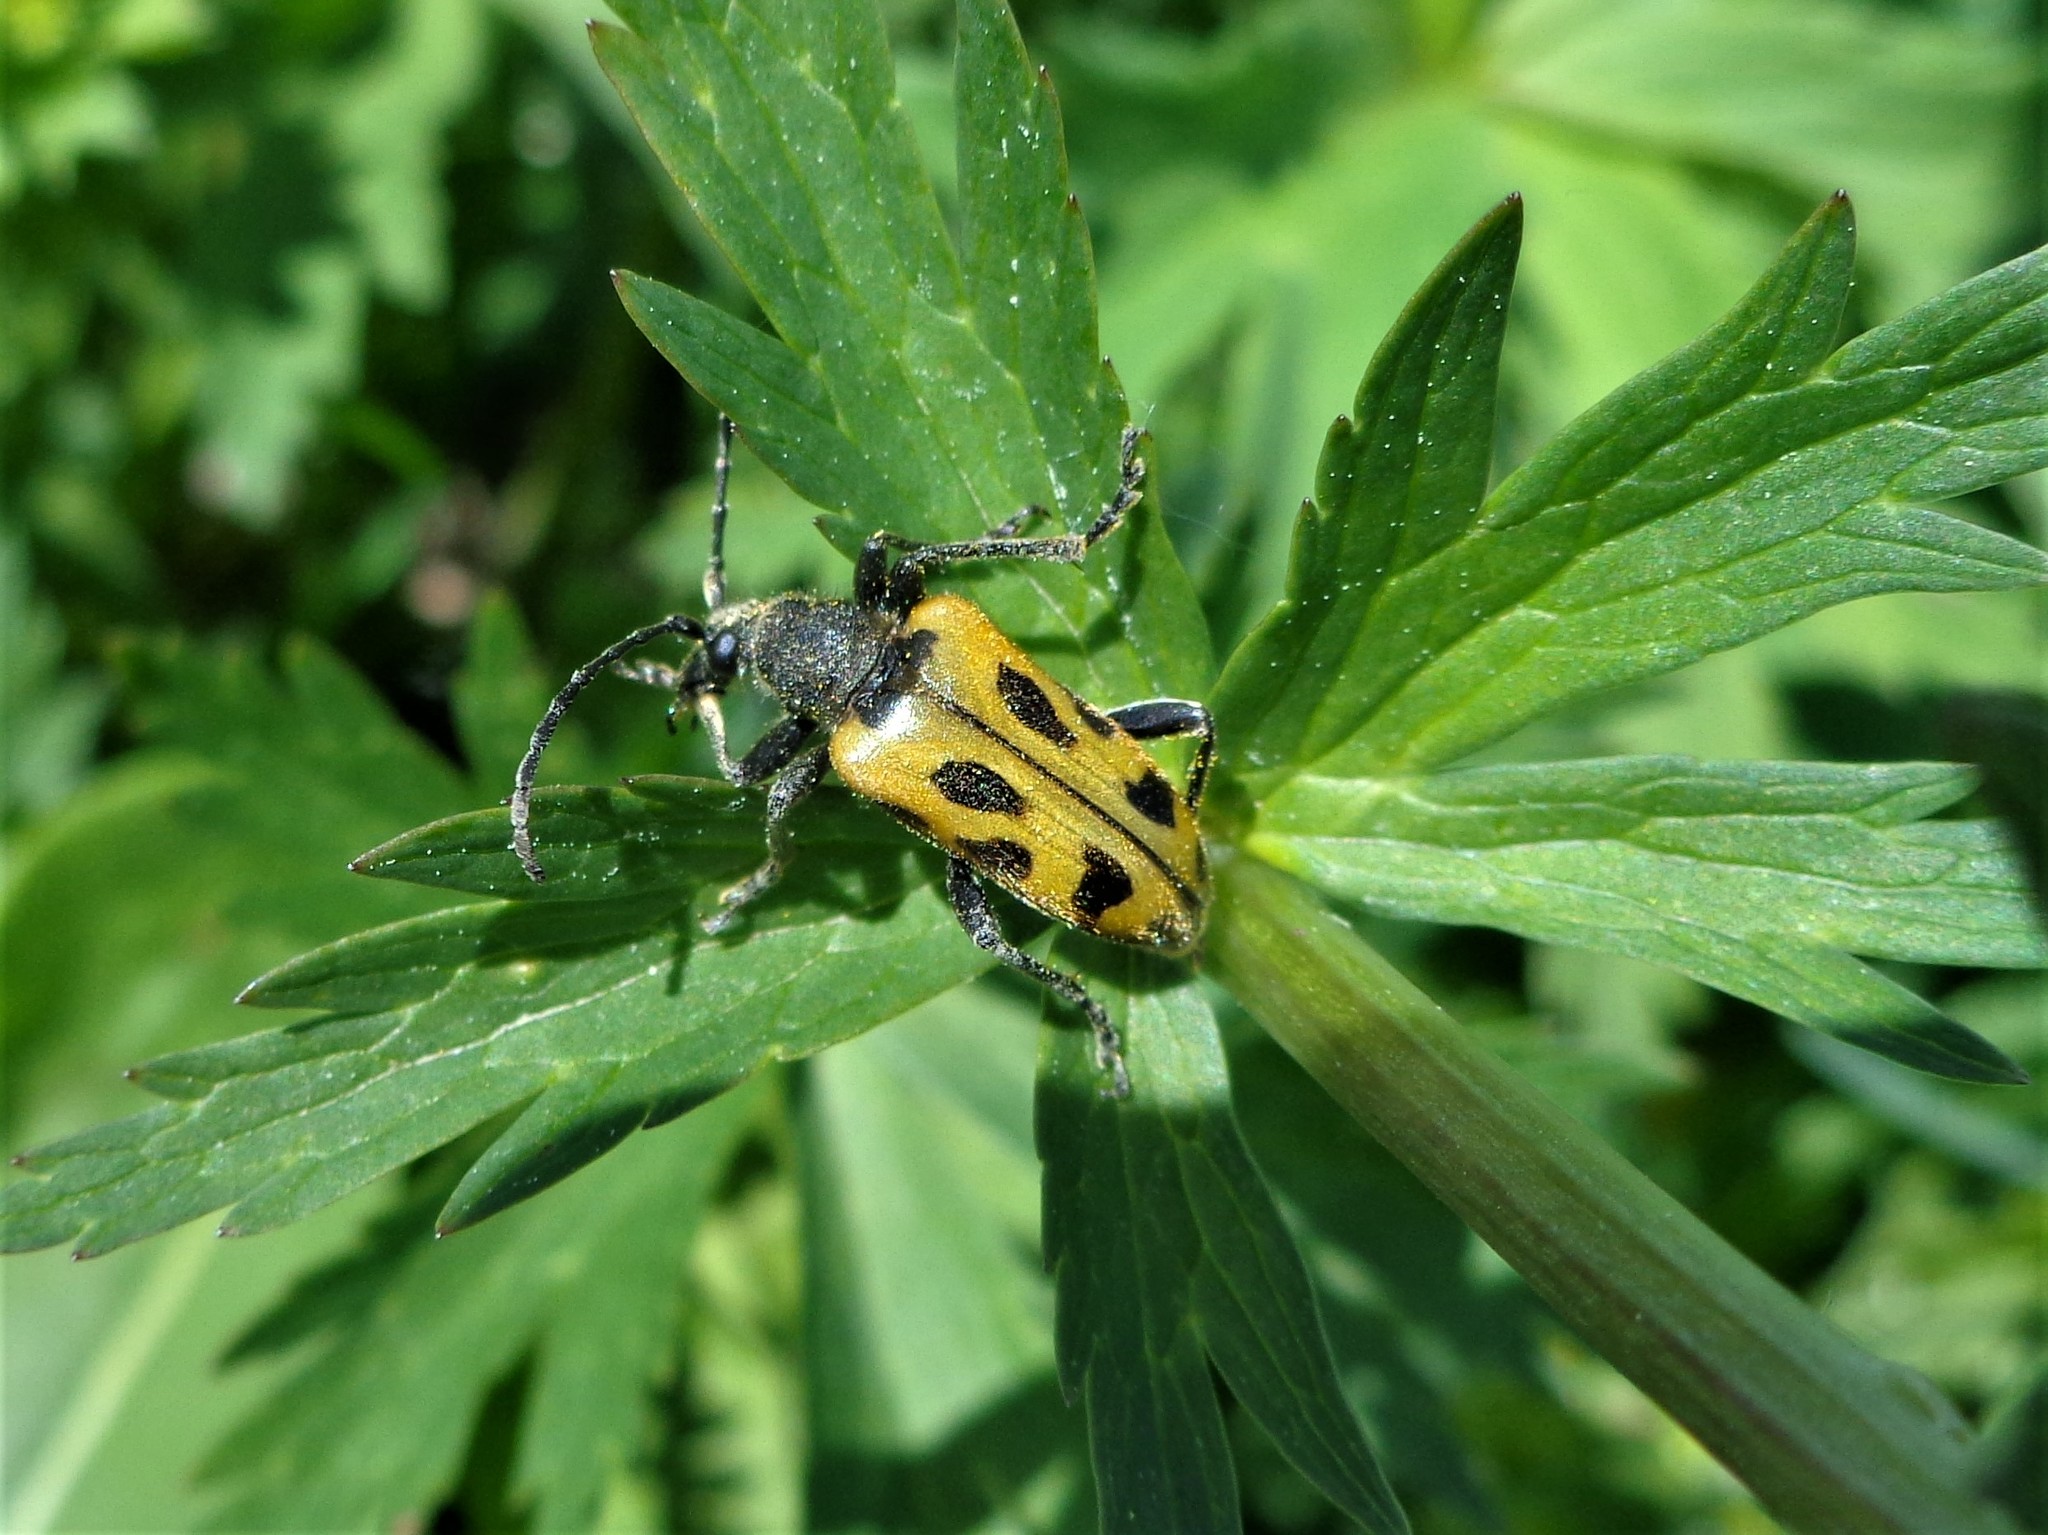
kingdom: Animalia
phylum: Arthropoda
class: Insecta
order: Coleoptera
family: Cerambycidae
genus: Brachyta
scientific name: Brachyta interrogationis
